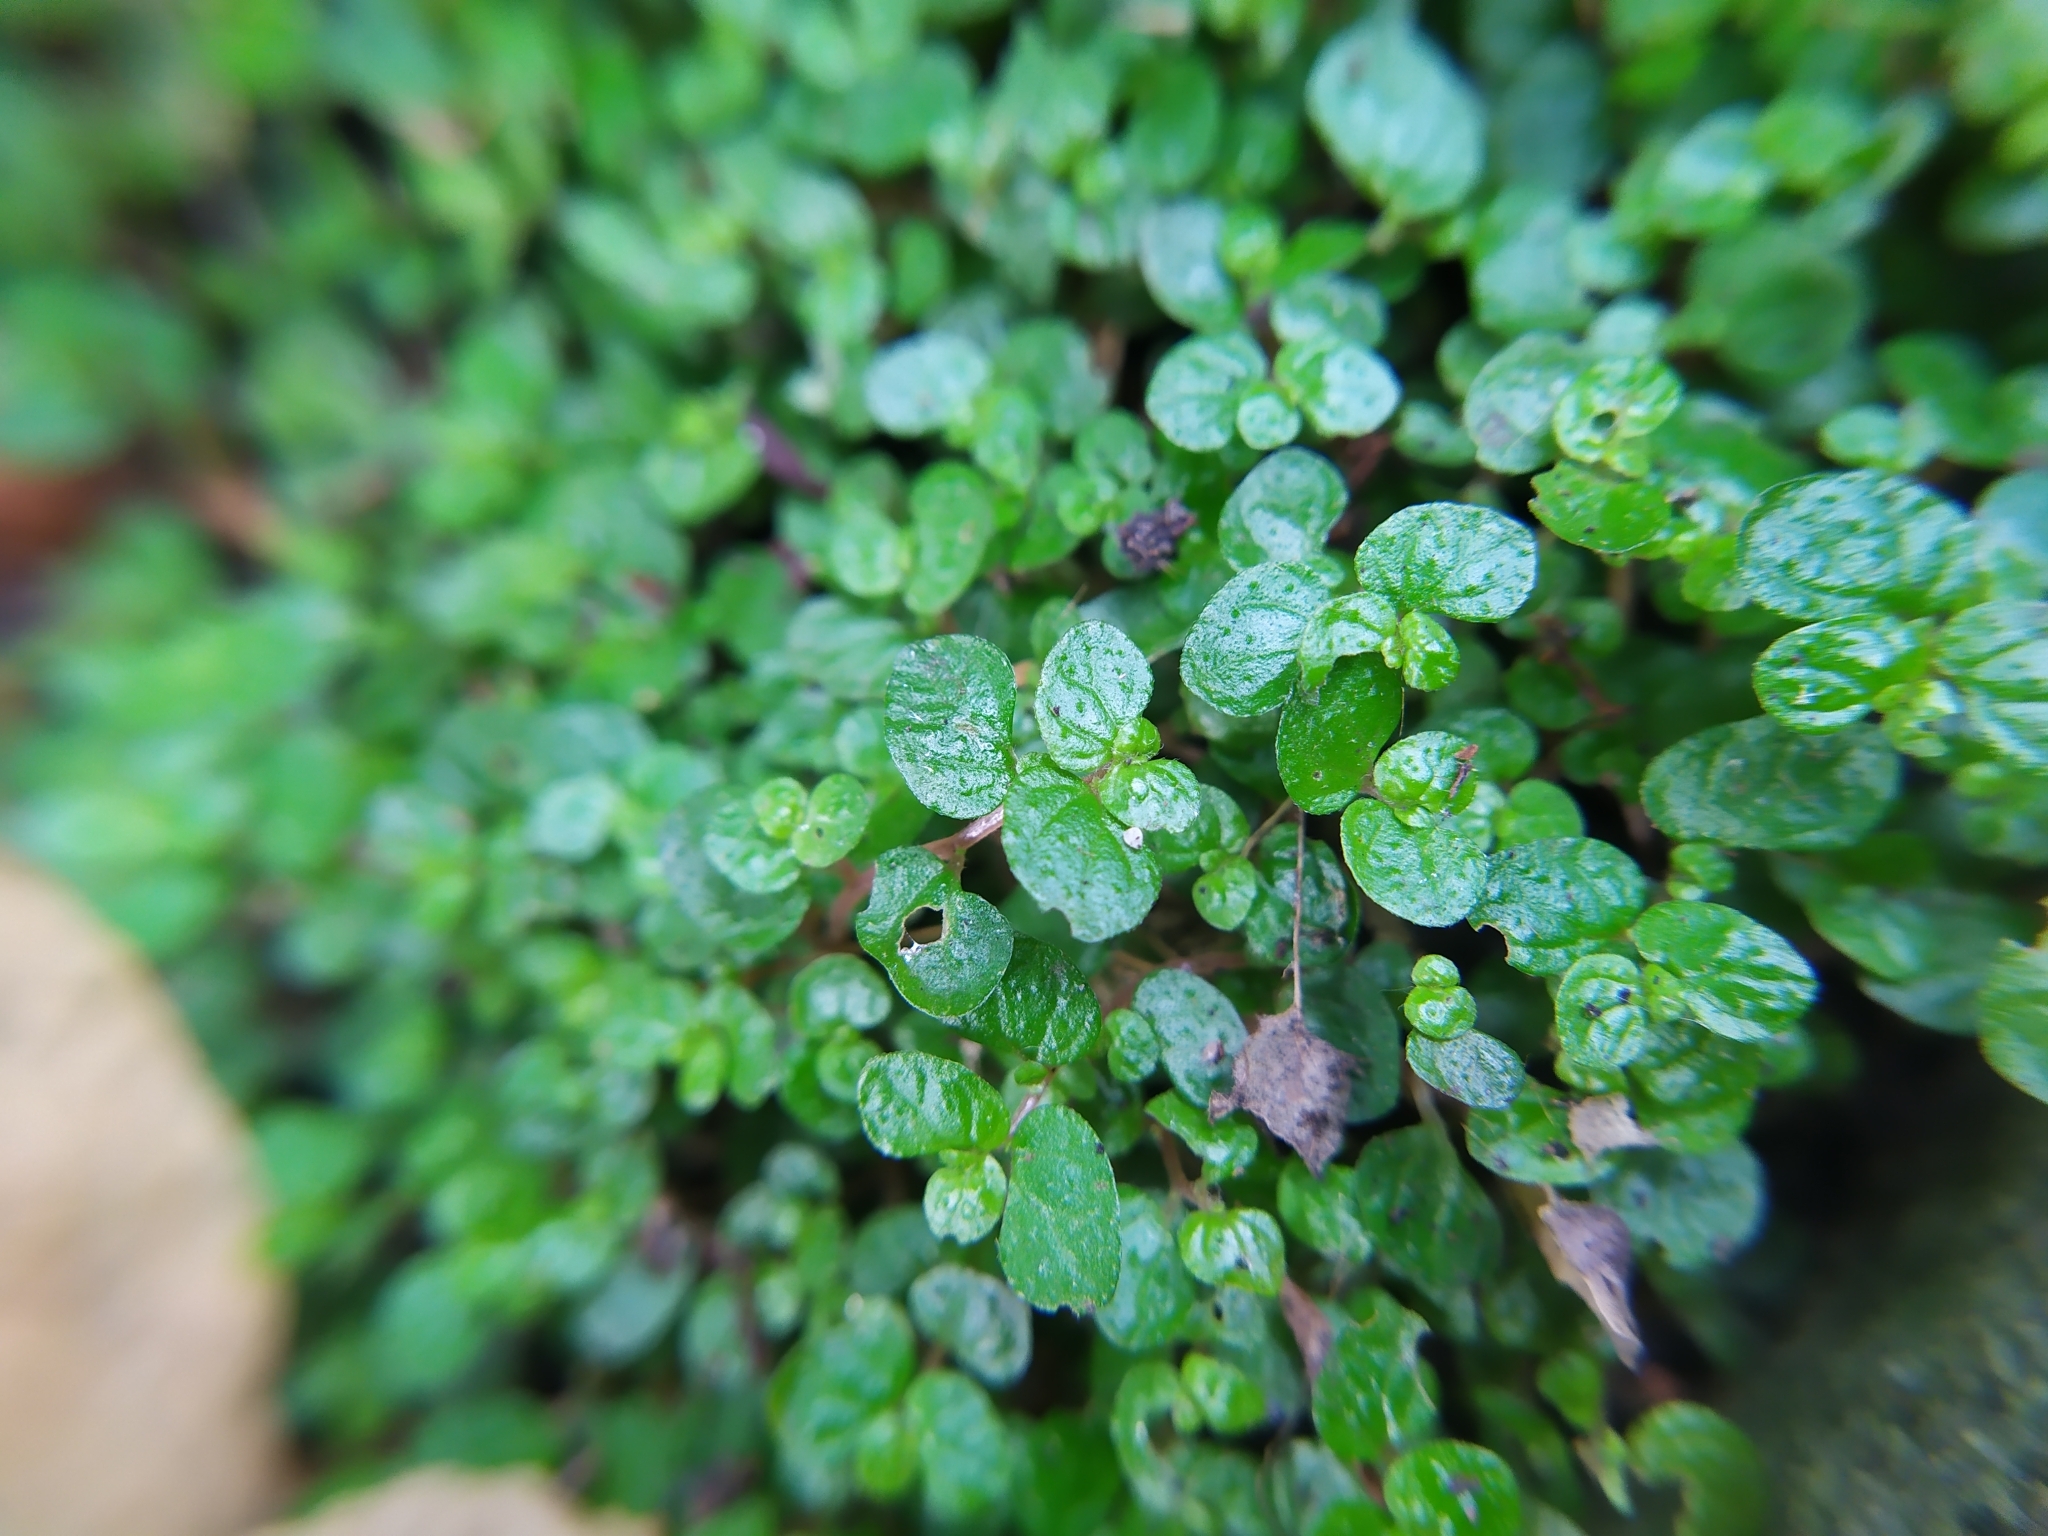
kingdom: Plantae
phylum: Tracheophyta
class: Magnoliopsida
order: Rosales
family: Urticaceae
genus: Soleirolia
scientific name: Soleirolia soleirolii
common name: Mind-your-own-business
